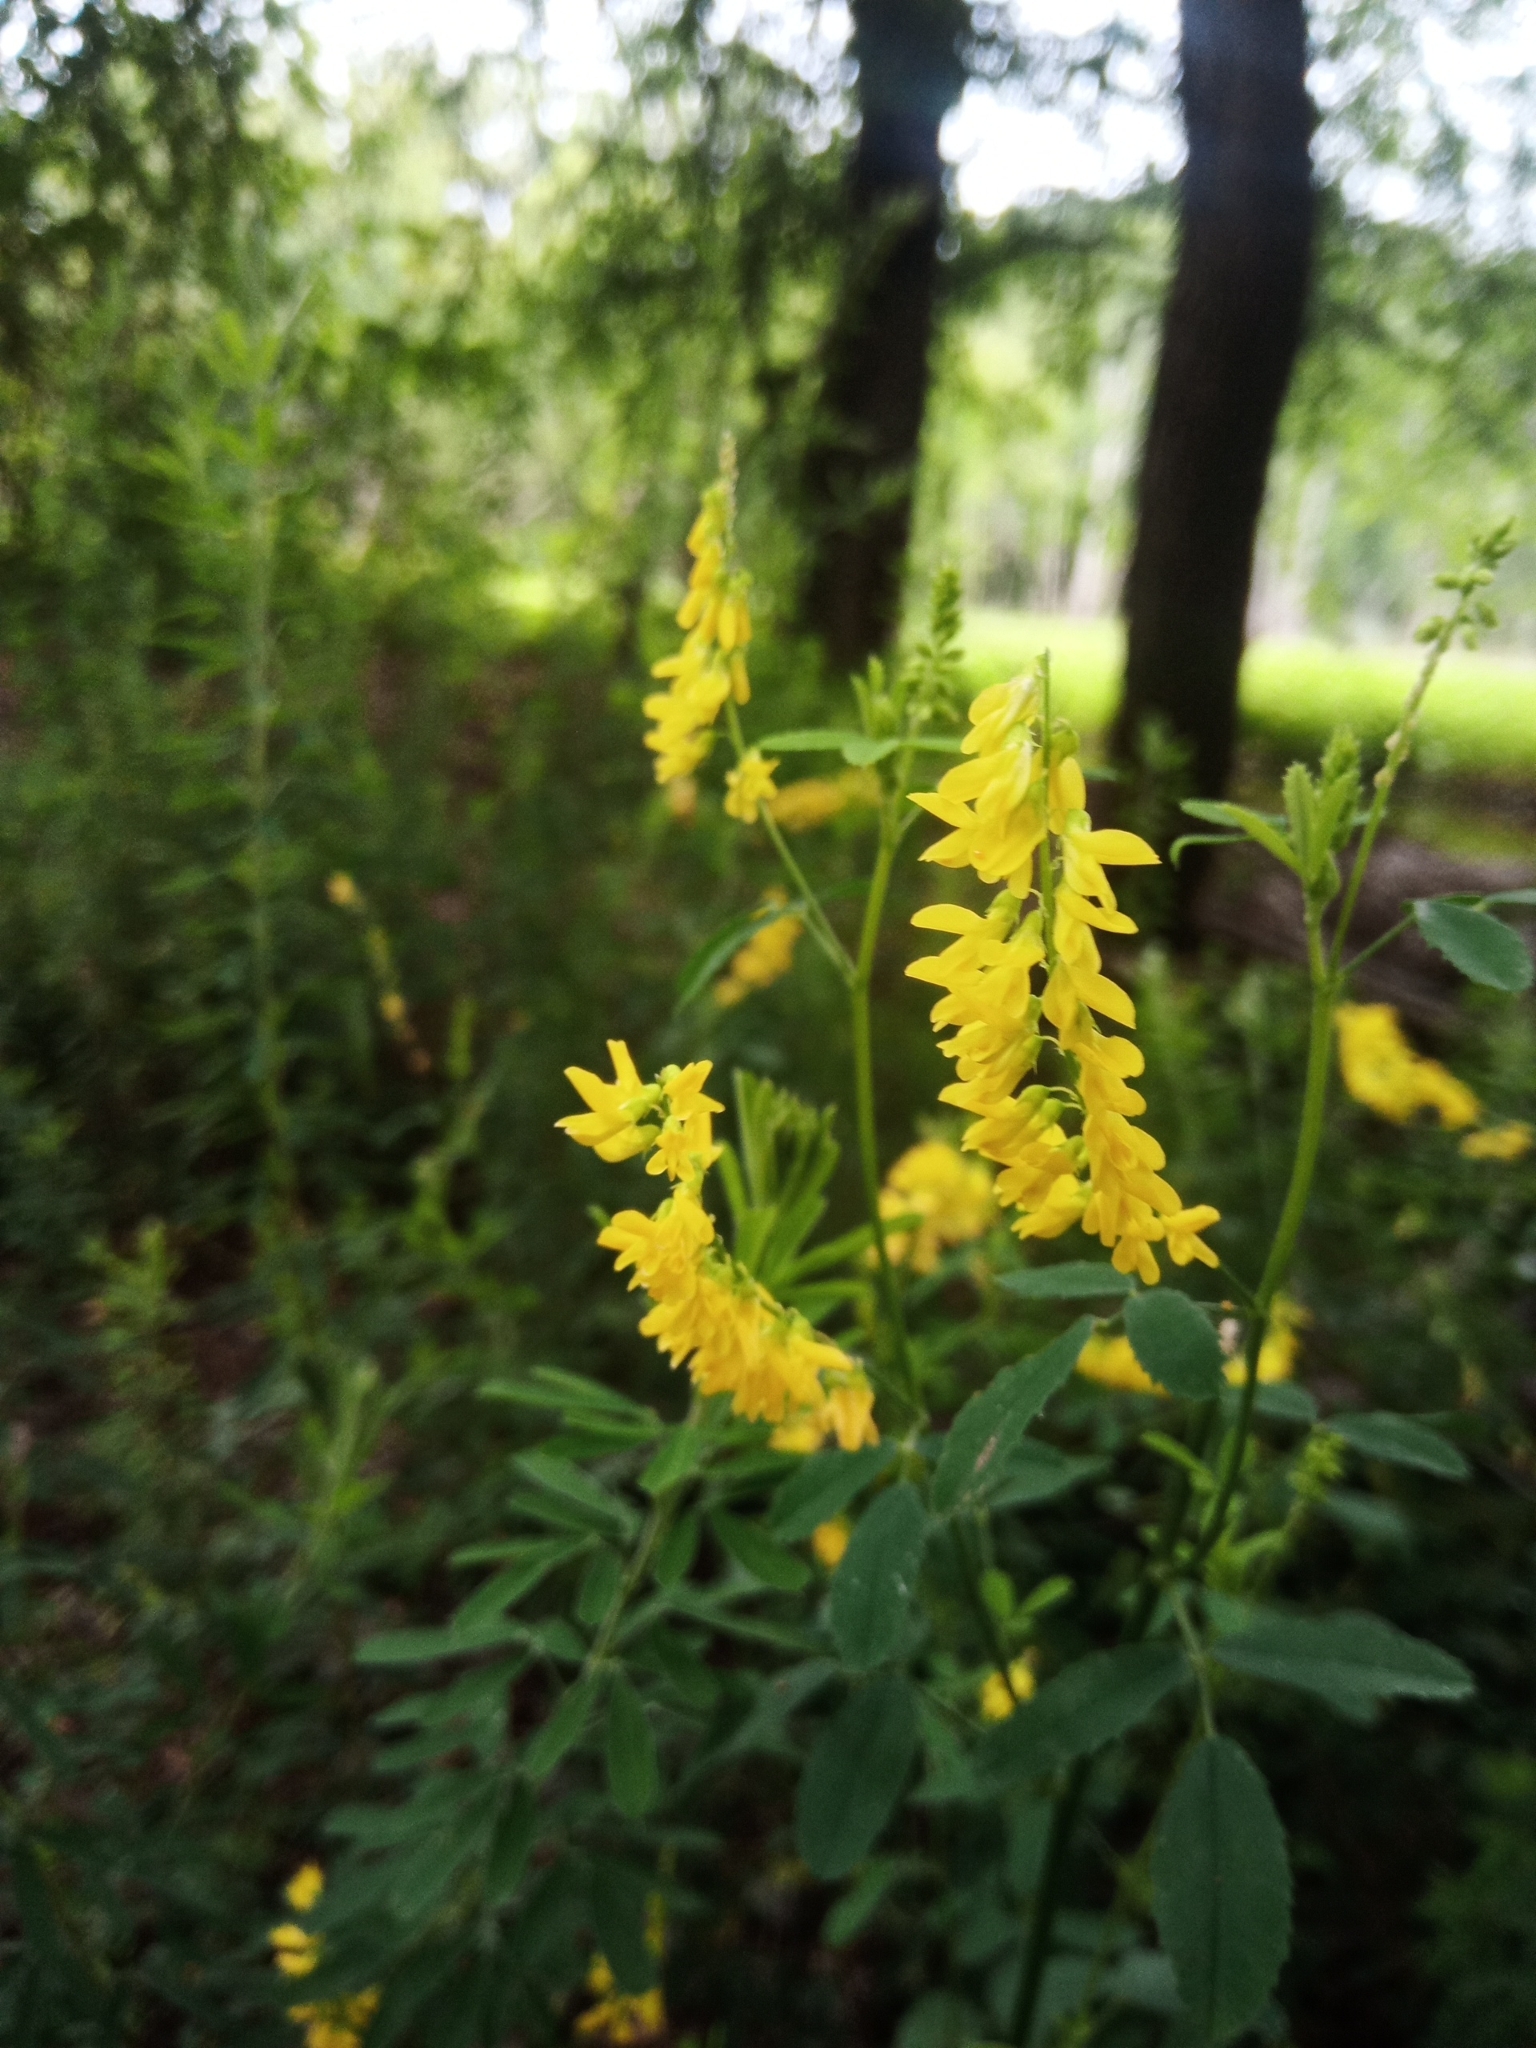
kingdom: Plantae
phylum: Tracheophyta
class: Magnoliopsida
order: Fabales
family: Fabaceae
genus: Melilotus
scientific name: Melilotus officinalis
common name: Sweetclover
